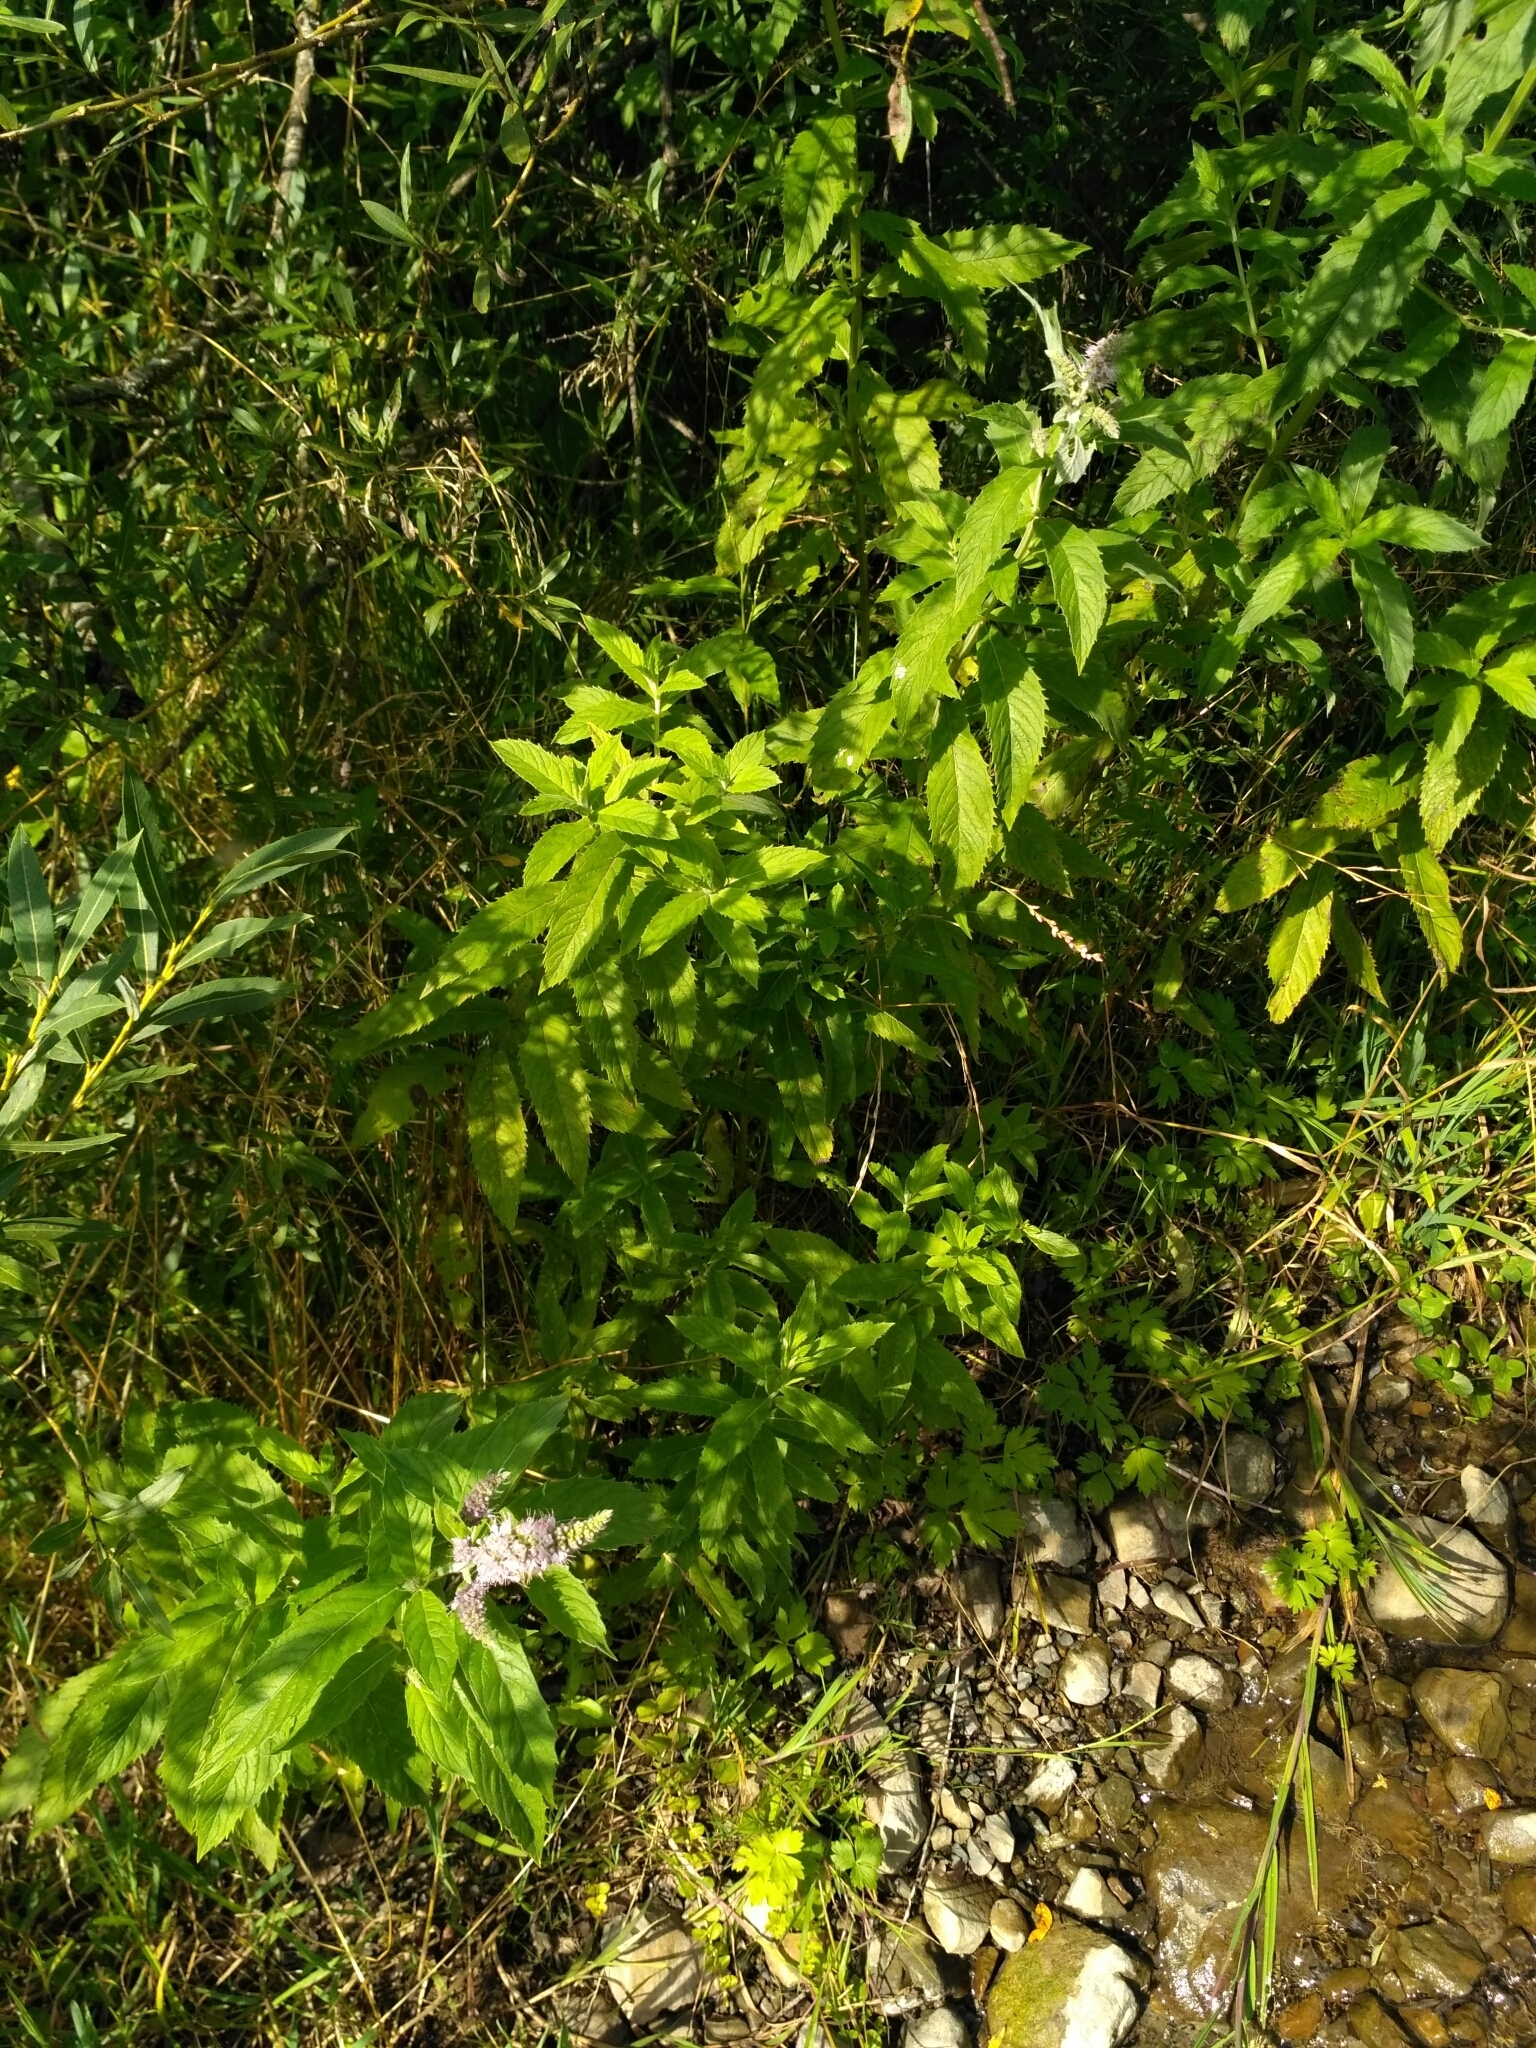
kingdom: Plantae
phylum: Tracheophyta
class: Magnoliopsida
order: Lamiales
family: Lamiaceae
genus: Mentha
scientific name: Mentha longifolia
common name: Horse mint
